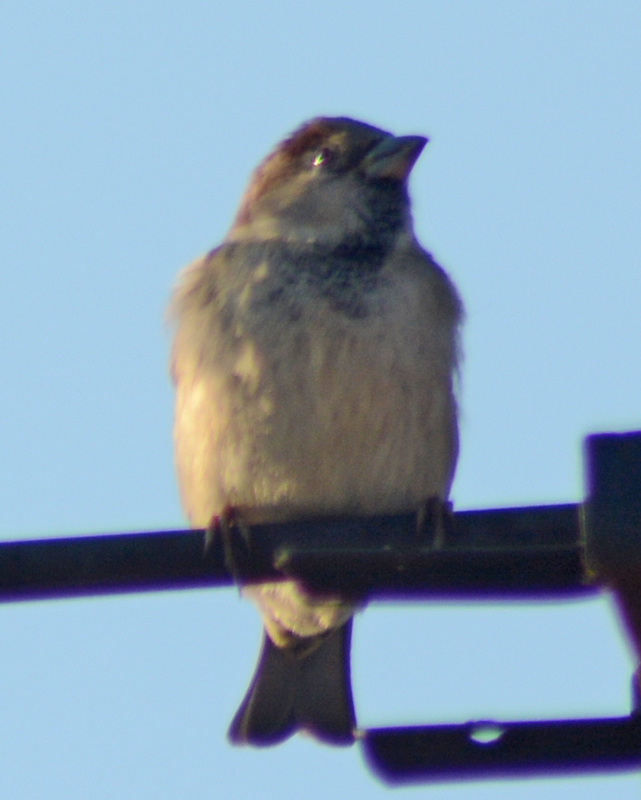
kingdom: Animalia
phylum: Chordata
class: Aves
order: Passeriformes
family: Passeridae
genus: Passer
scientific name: Passer domesticus
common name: House sparrow
